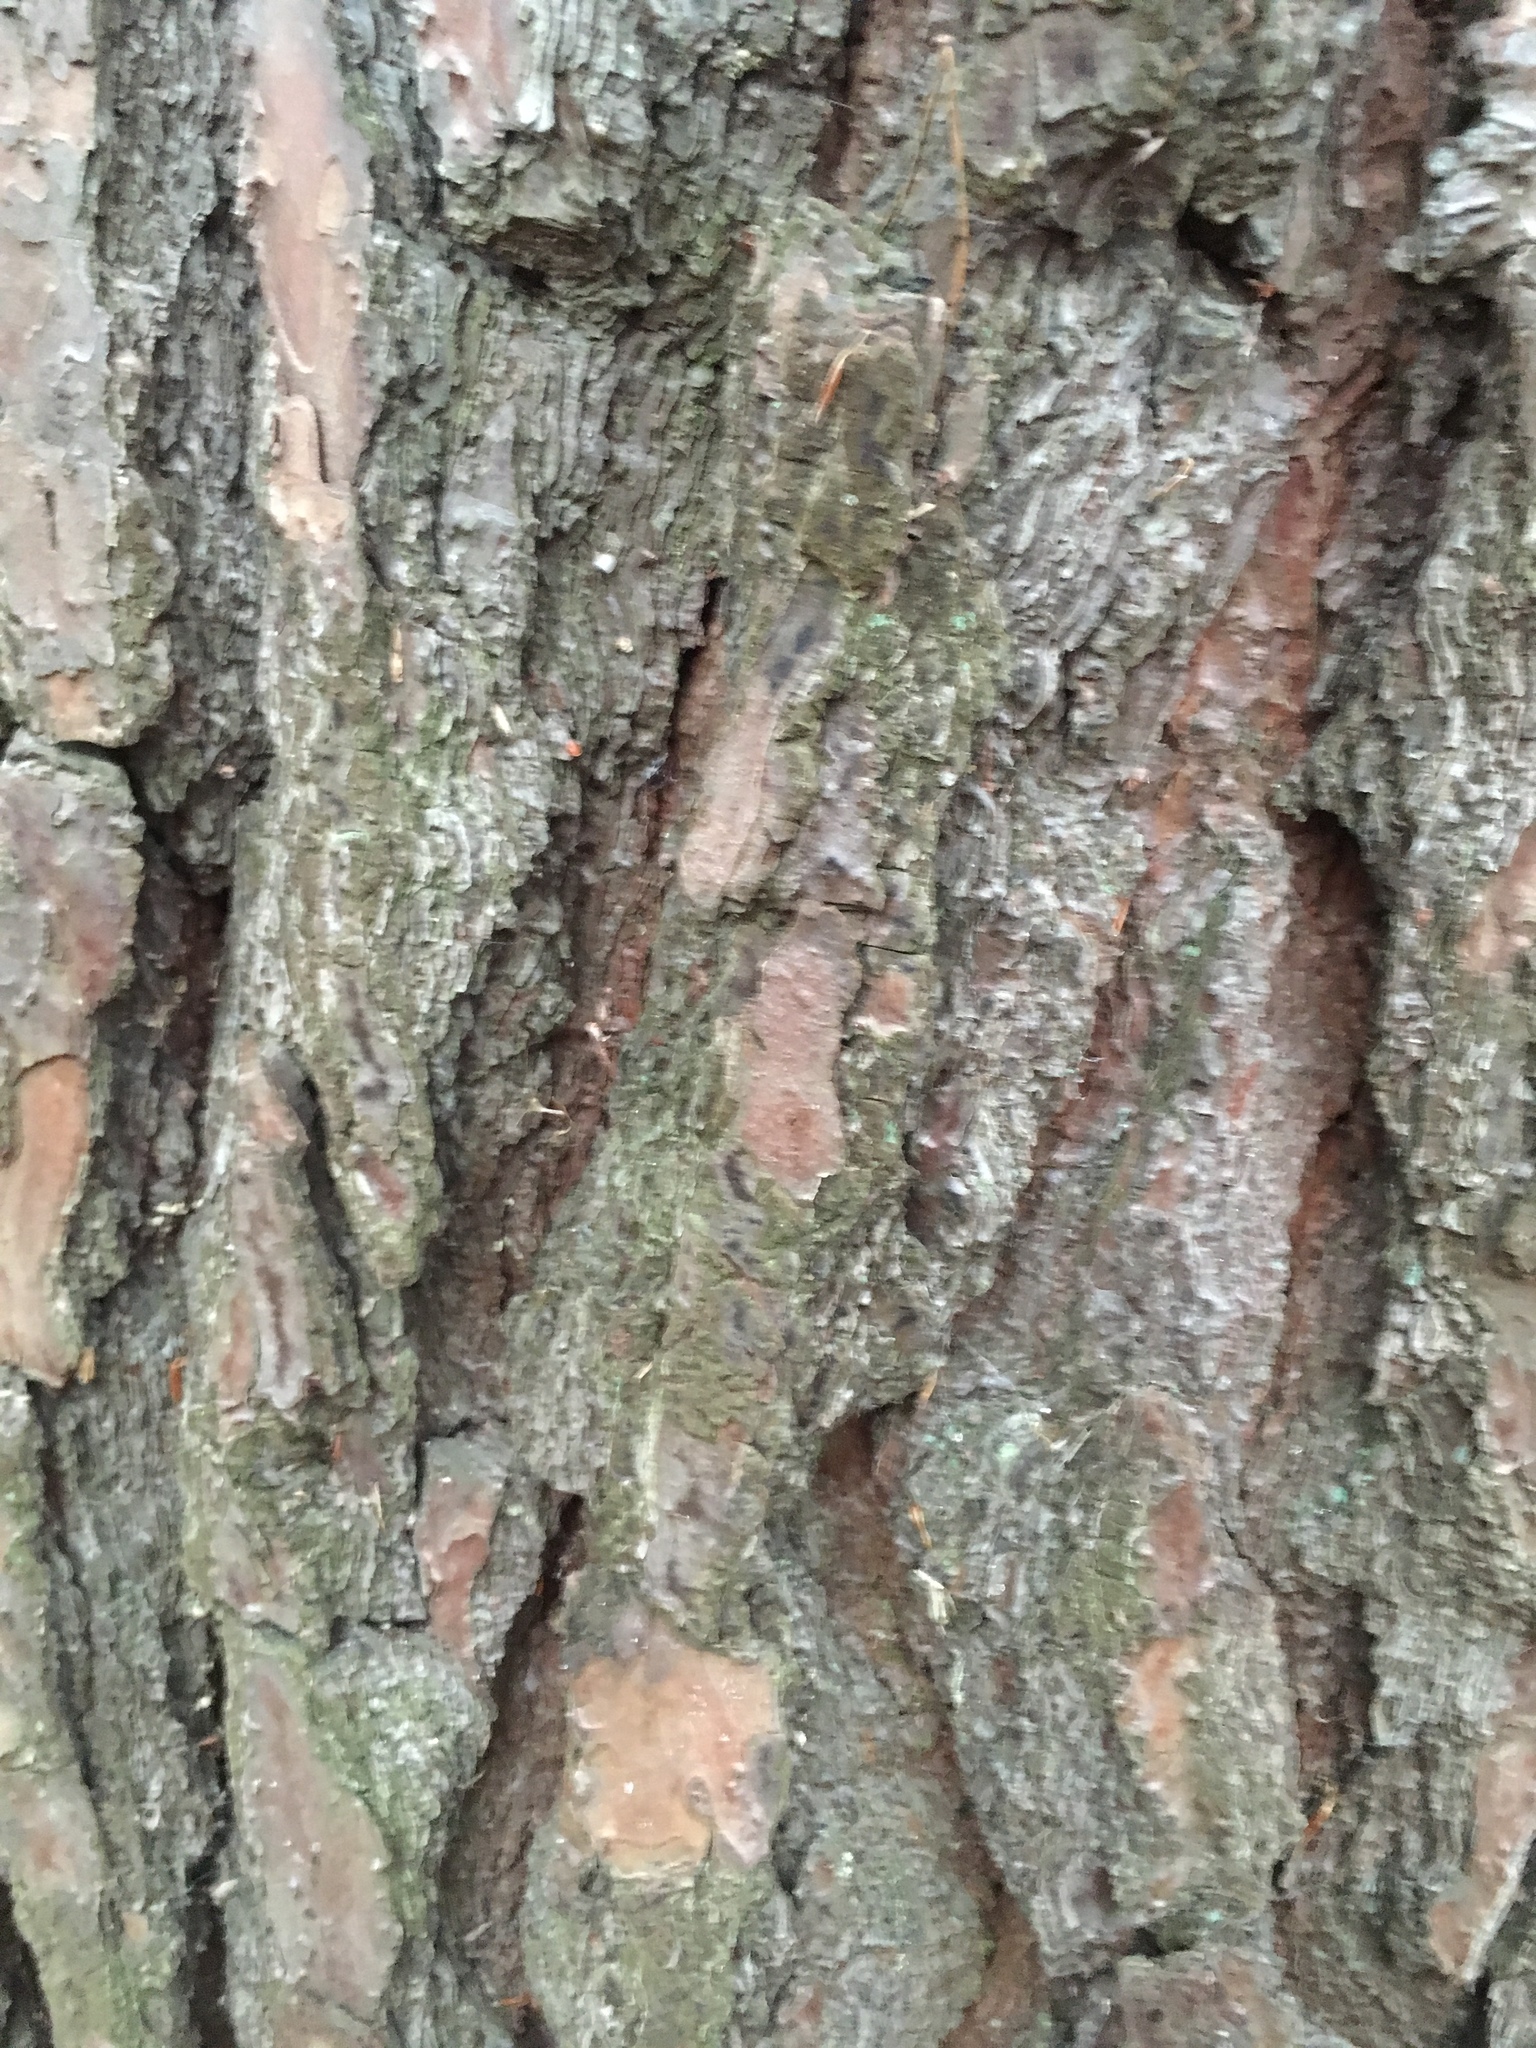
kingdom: Plantae
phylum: Tracheophyta
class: Pinopsida
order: Pinales
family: Pinaceae
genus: Pinus
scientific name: Pinus sylvestris
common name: Scots pine
